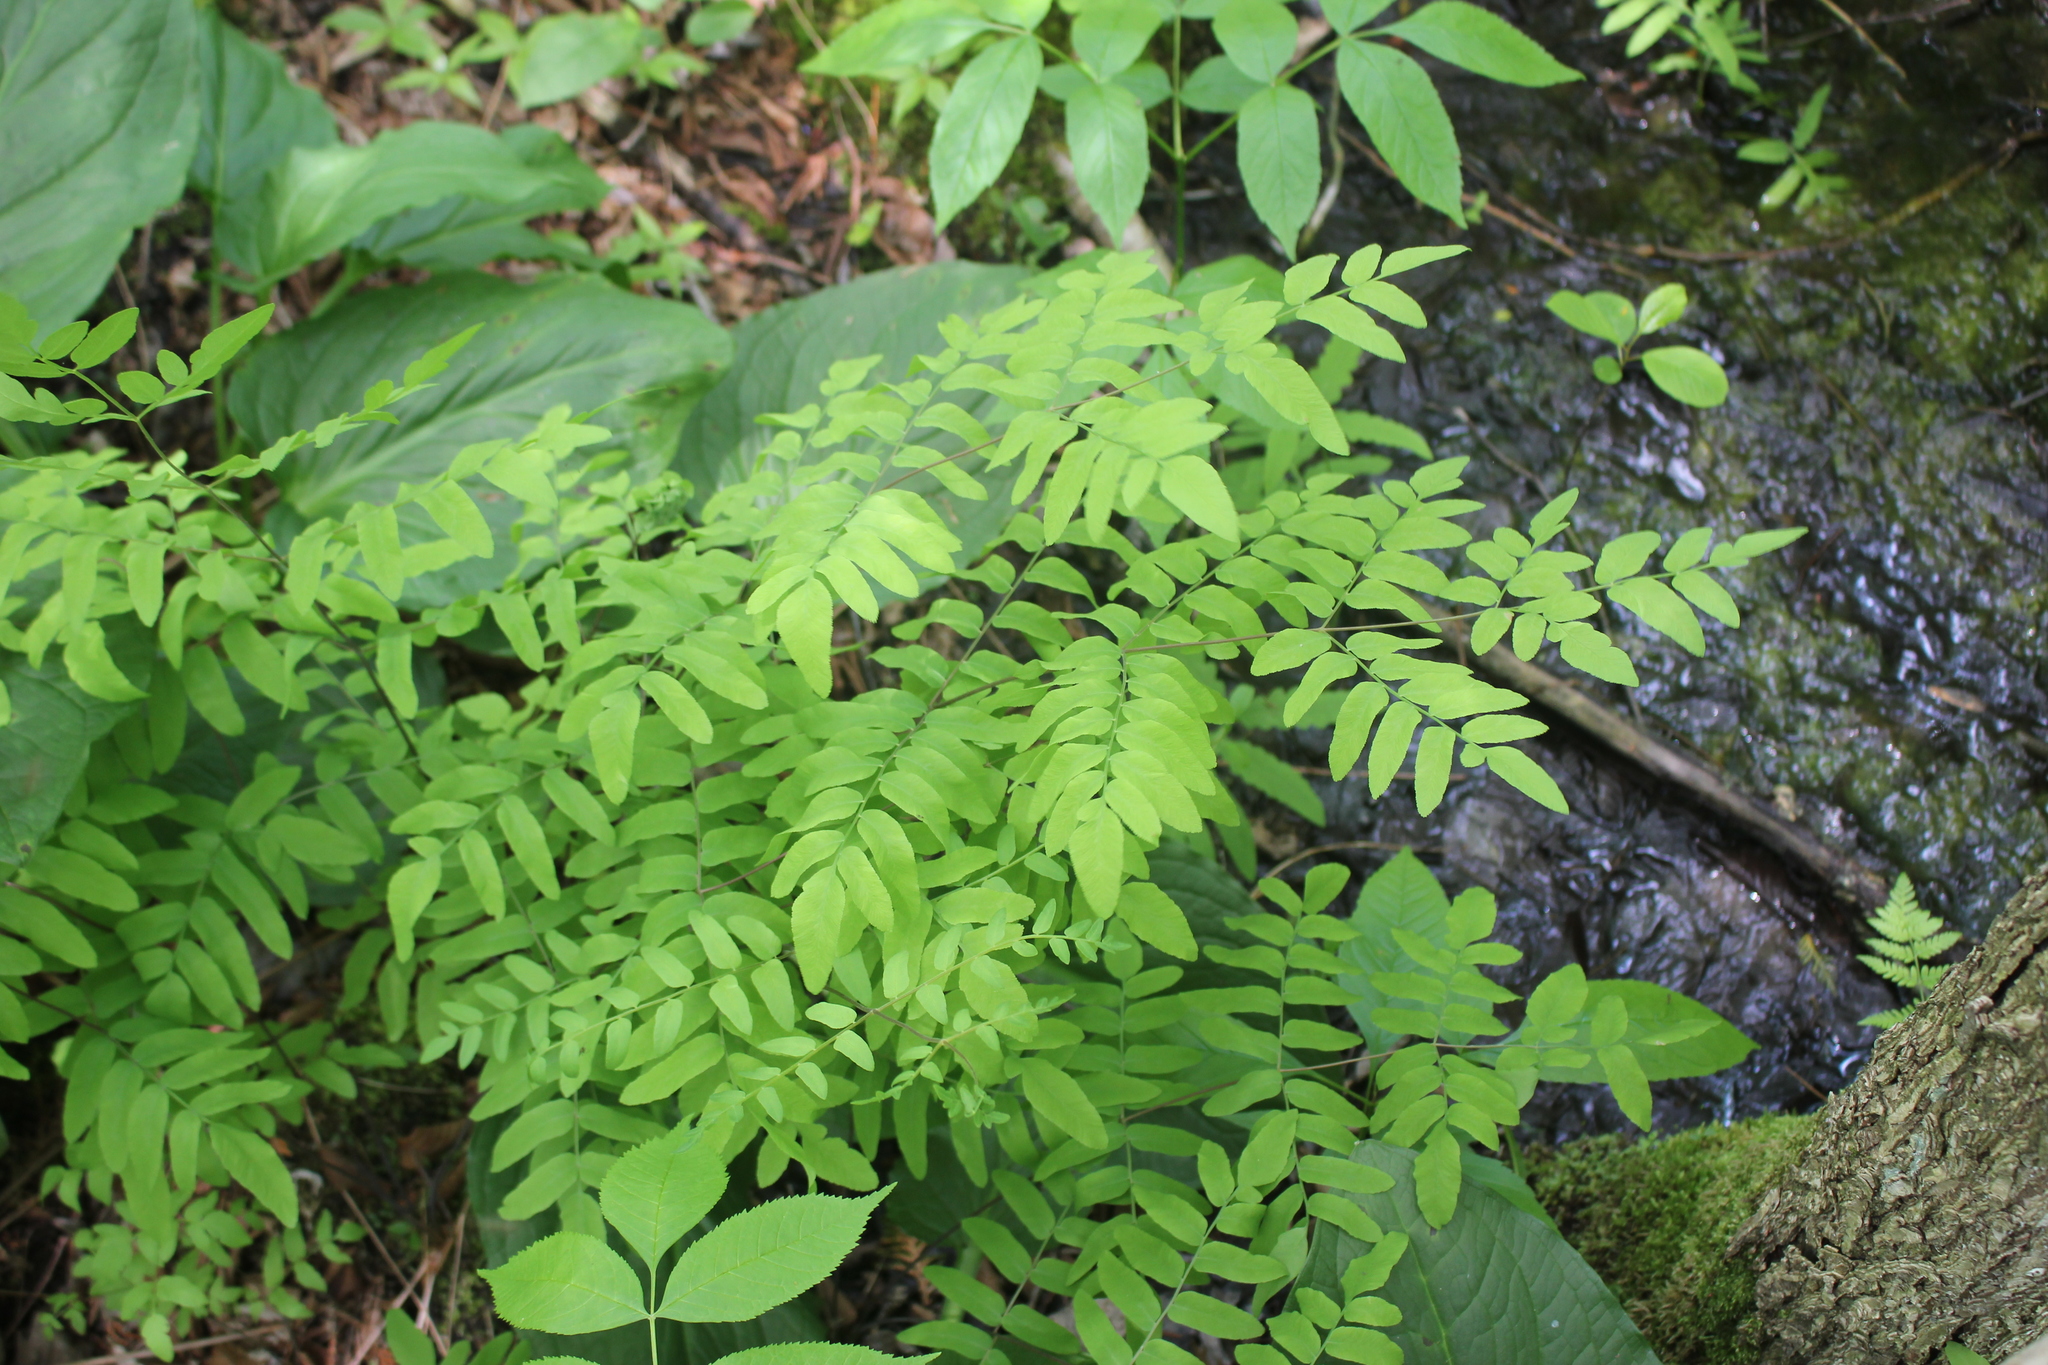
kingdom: Plantae
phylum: Tracheophyta
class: Polypodiopsida
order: Osmundales
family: Osmundaceae
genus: Osmunda
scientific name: Osmunda spectabilis
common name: American royal fern
